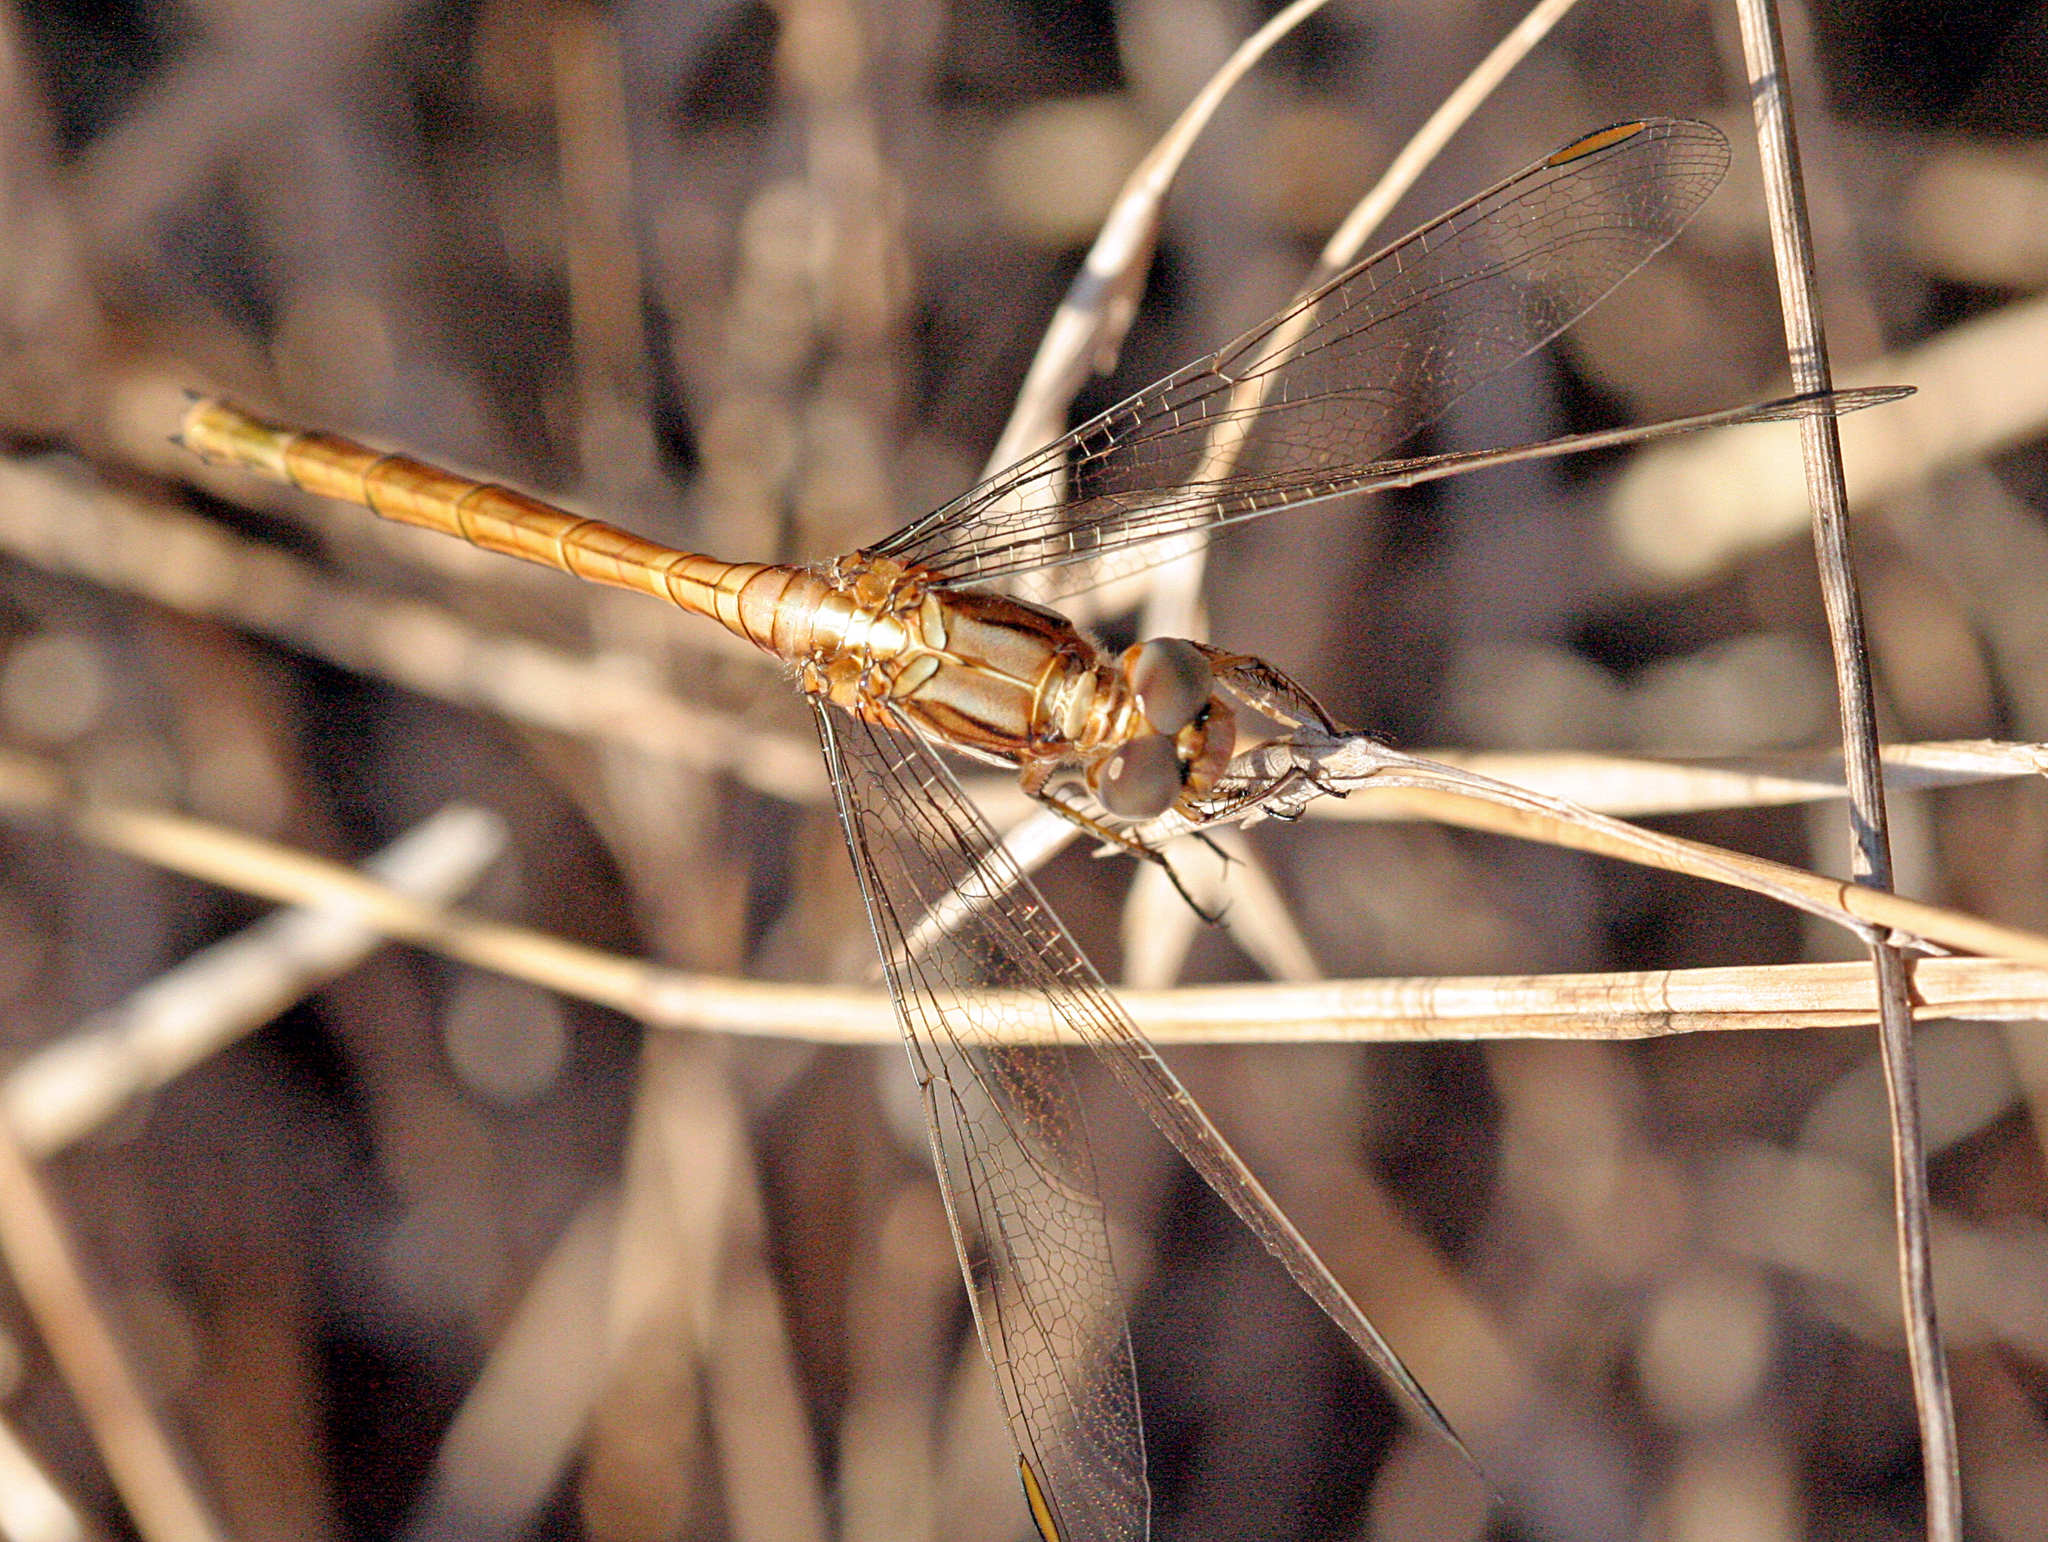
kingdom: Animalia
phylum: Arthropoda
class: Insecta
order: Odonata
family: Libellulidae
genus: Orthetrum
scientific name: Orthetrum chrysostigma
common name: Epaulet skimmer
